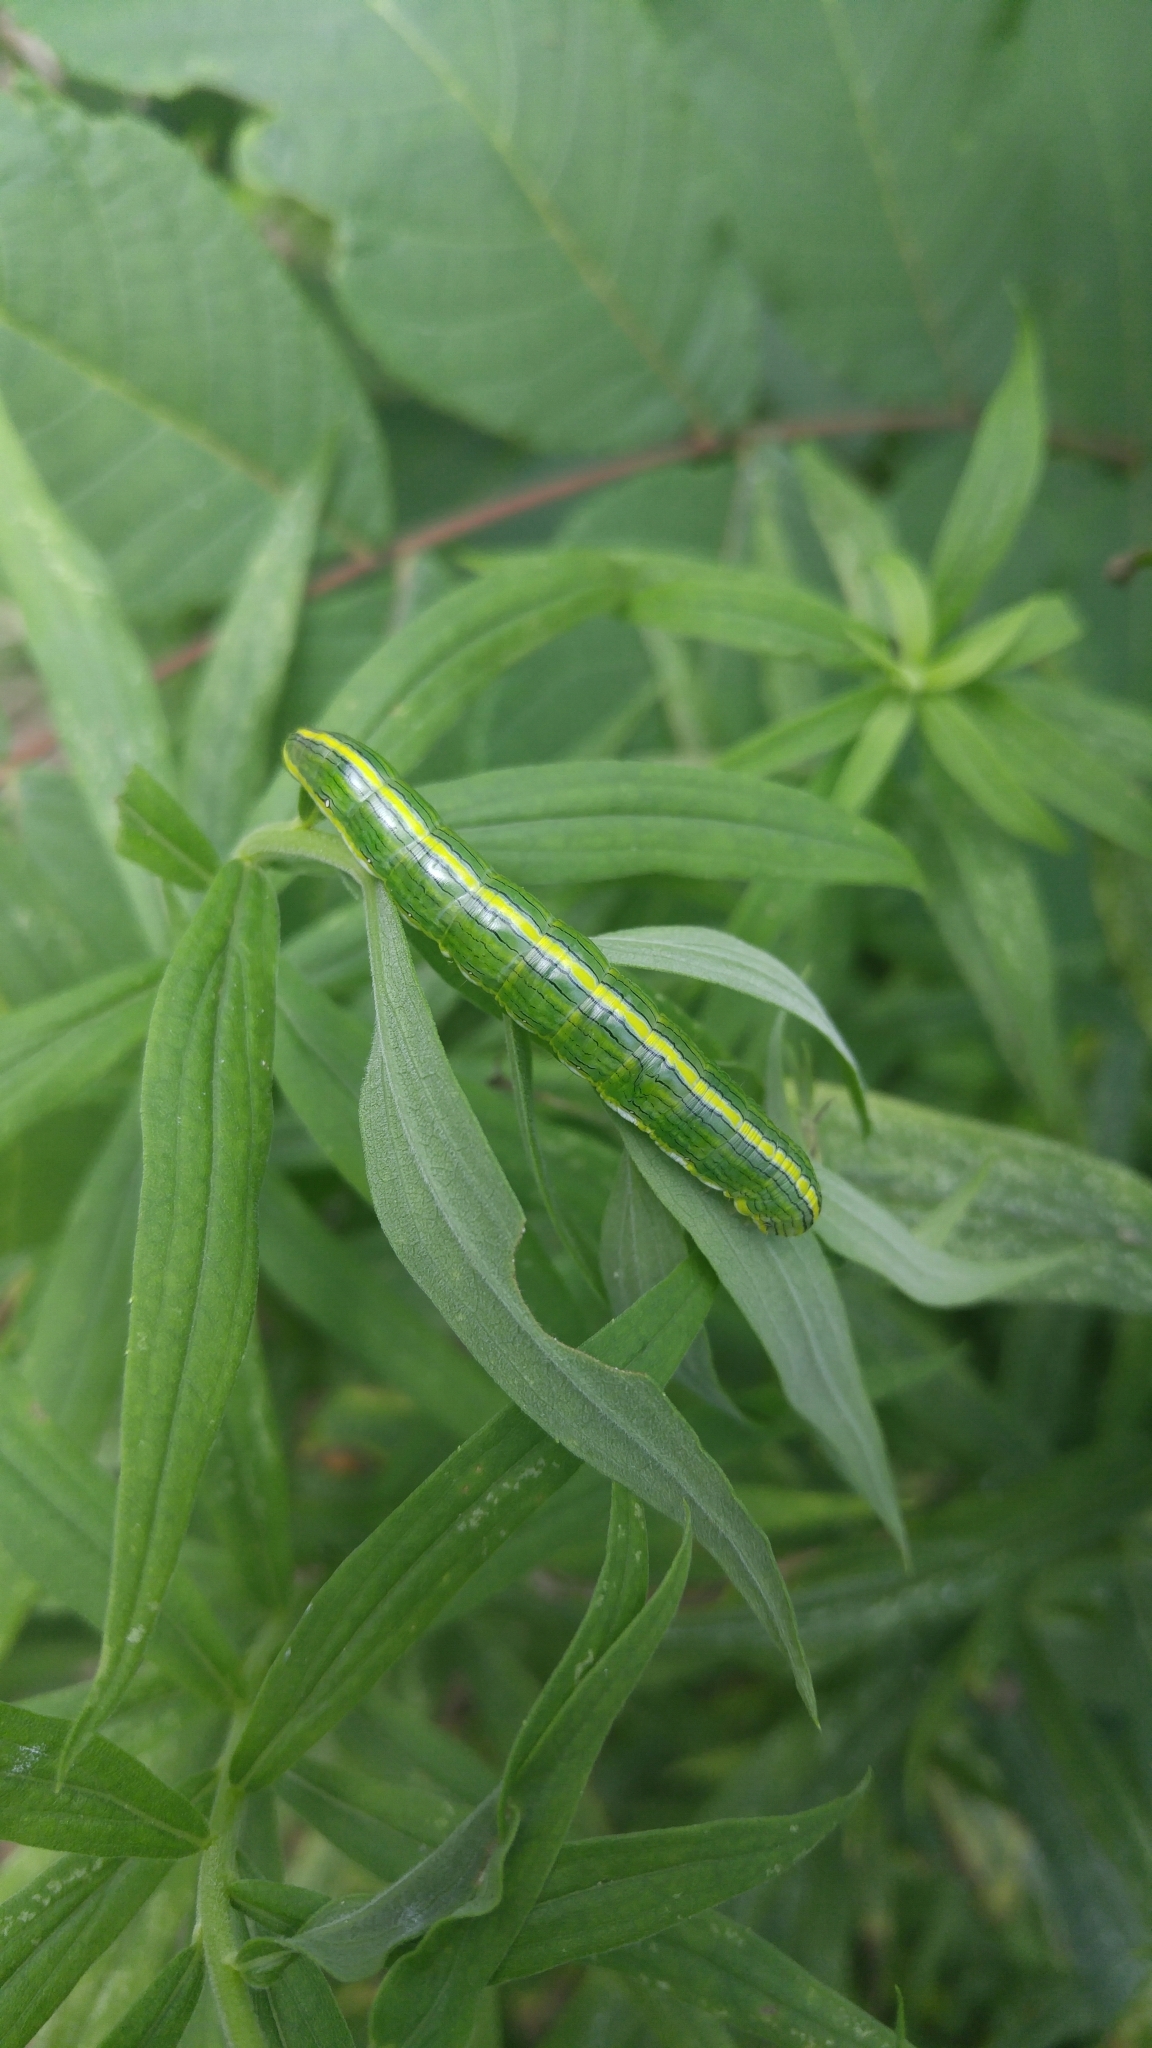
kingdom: Animalia
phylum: Arthropoda
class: Insecta
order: Lepidoptera
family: Noctuidae
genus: Cucullia
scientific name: Cucullia asteroides
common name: Asteroid moth
